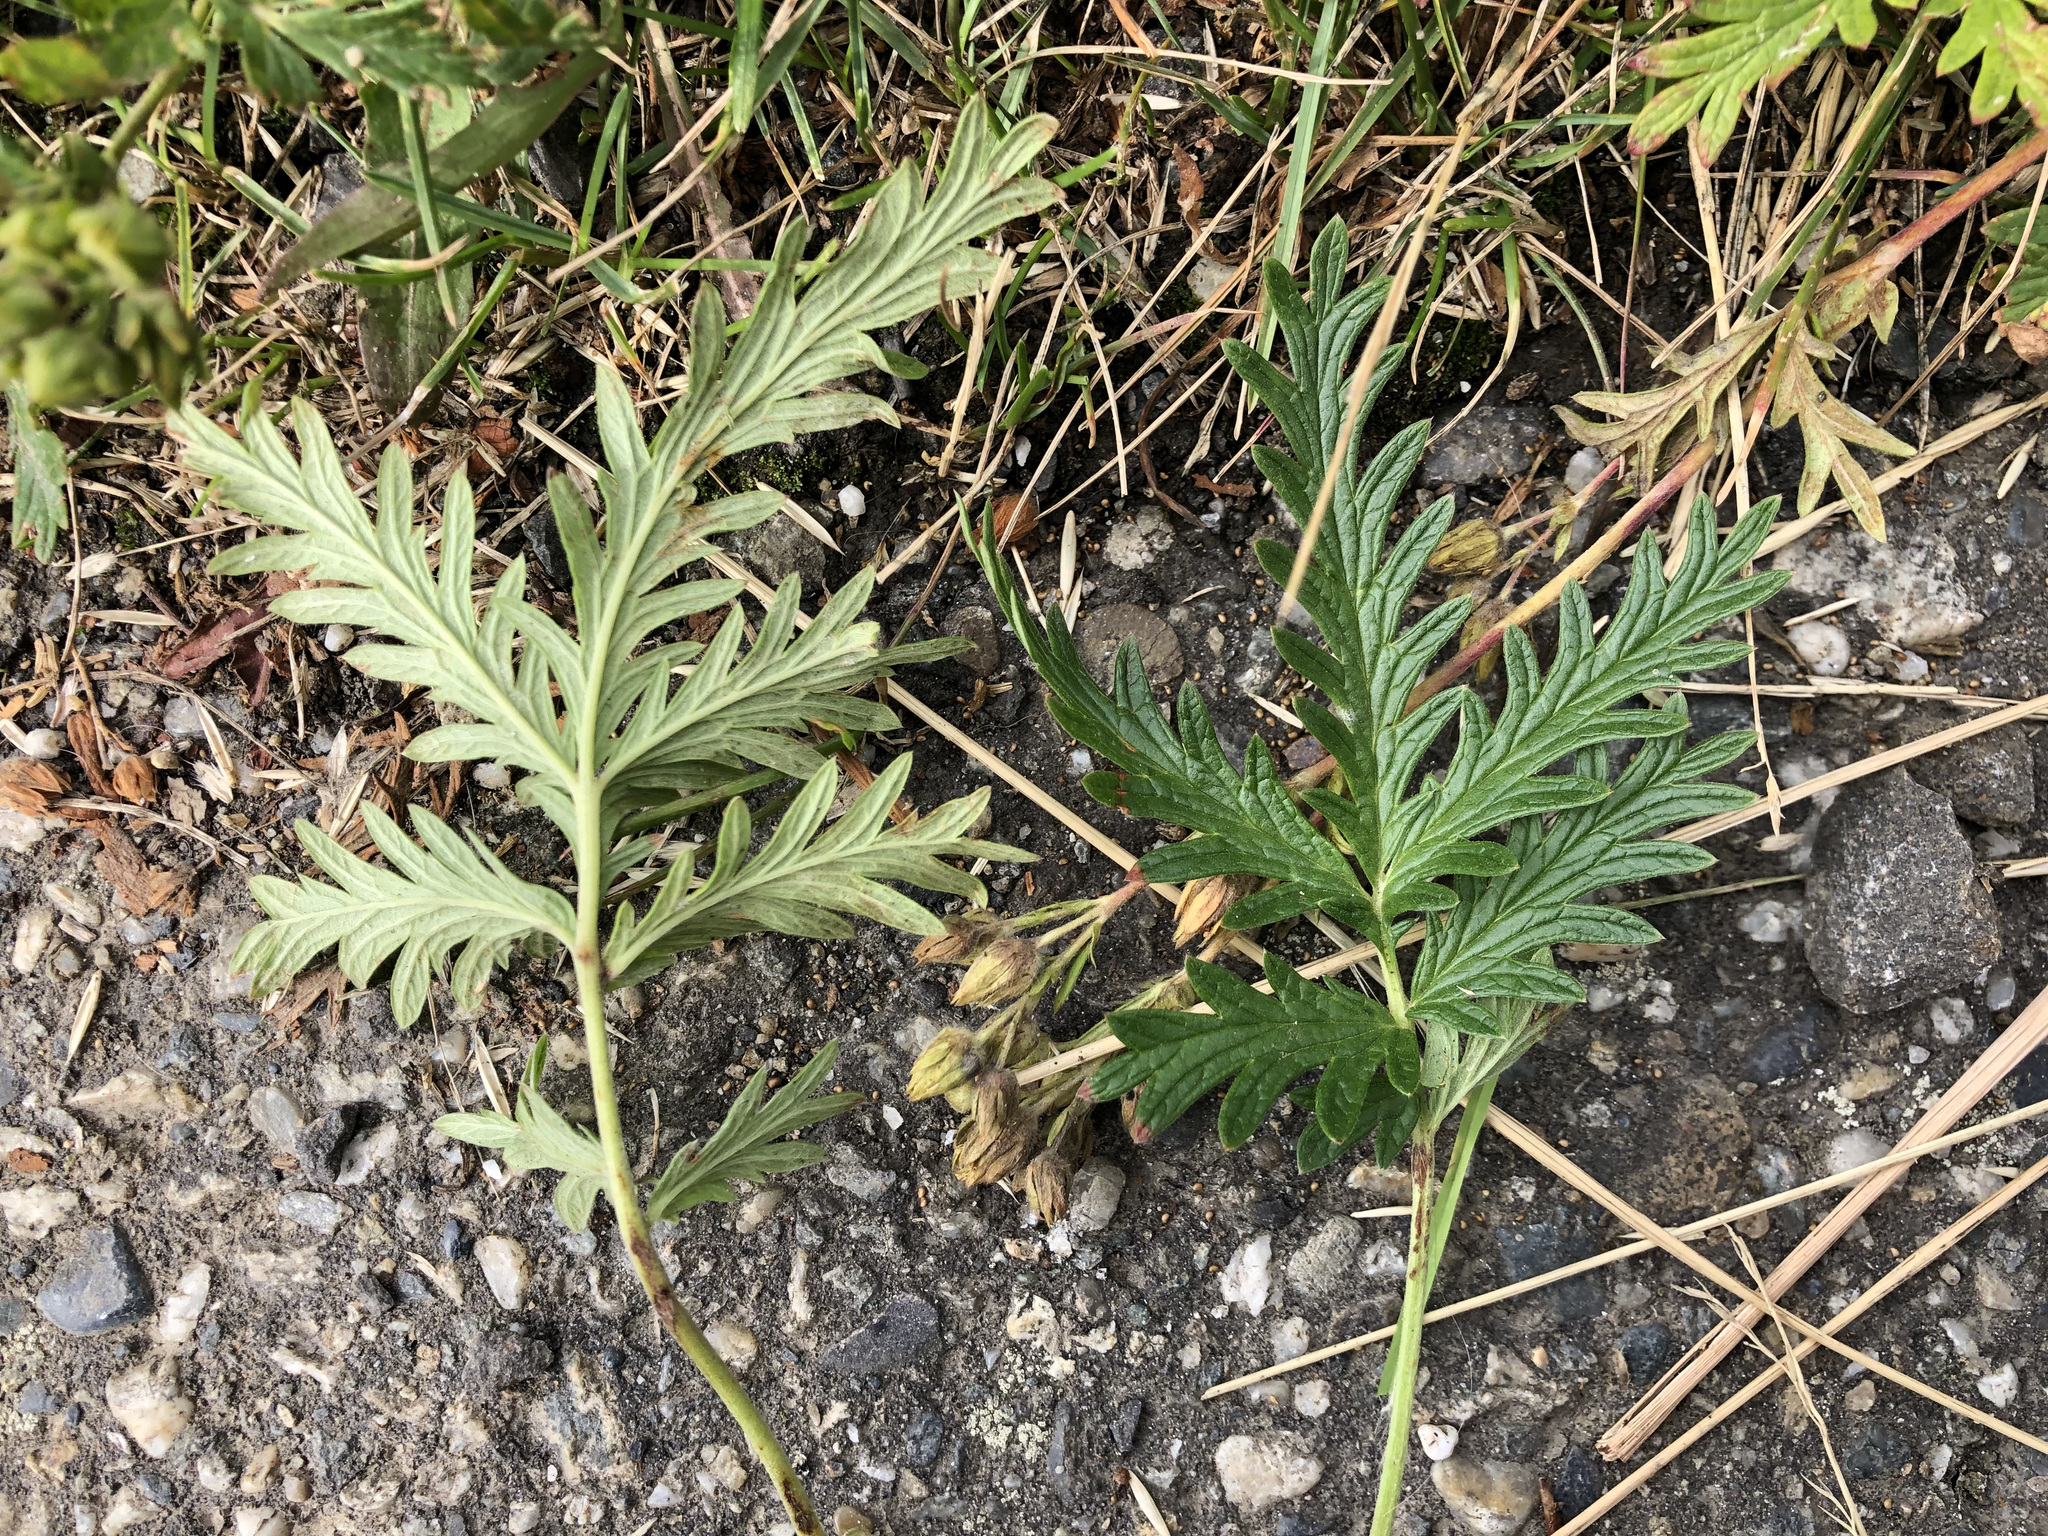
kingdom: Plantae
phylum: Tracheophyta
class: Magnoliopsida
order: Rosales
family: Rosaceae
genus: Potentilla
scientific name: Potentilla litoralis
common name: Coast cinquefoil
